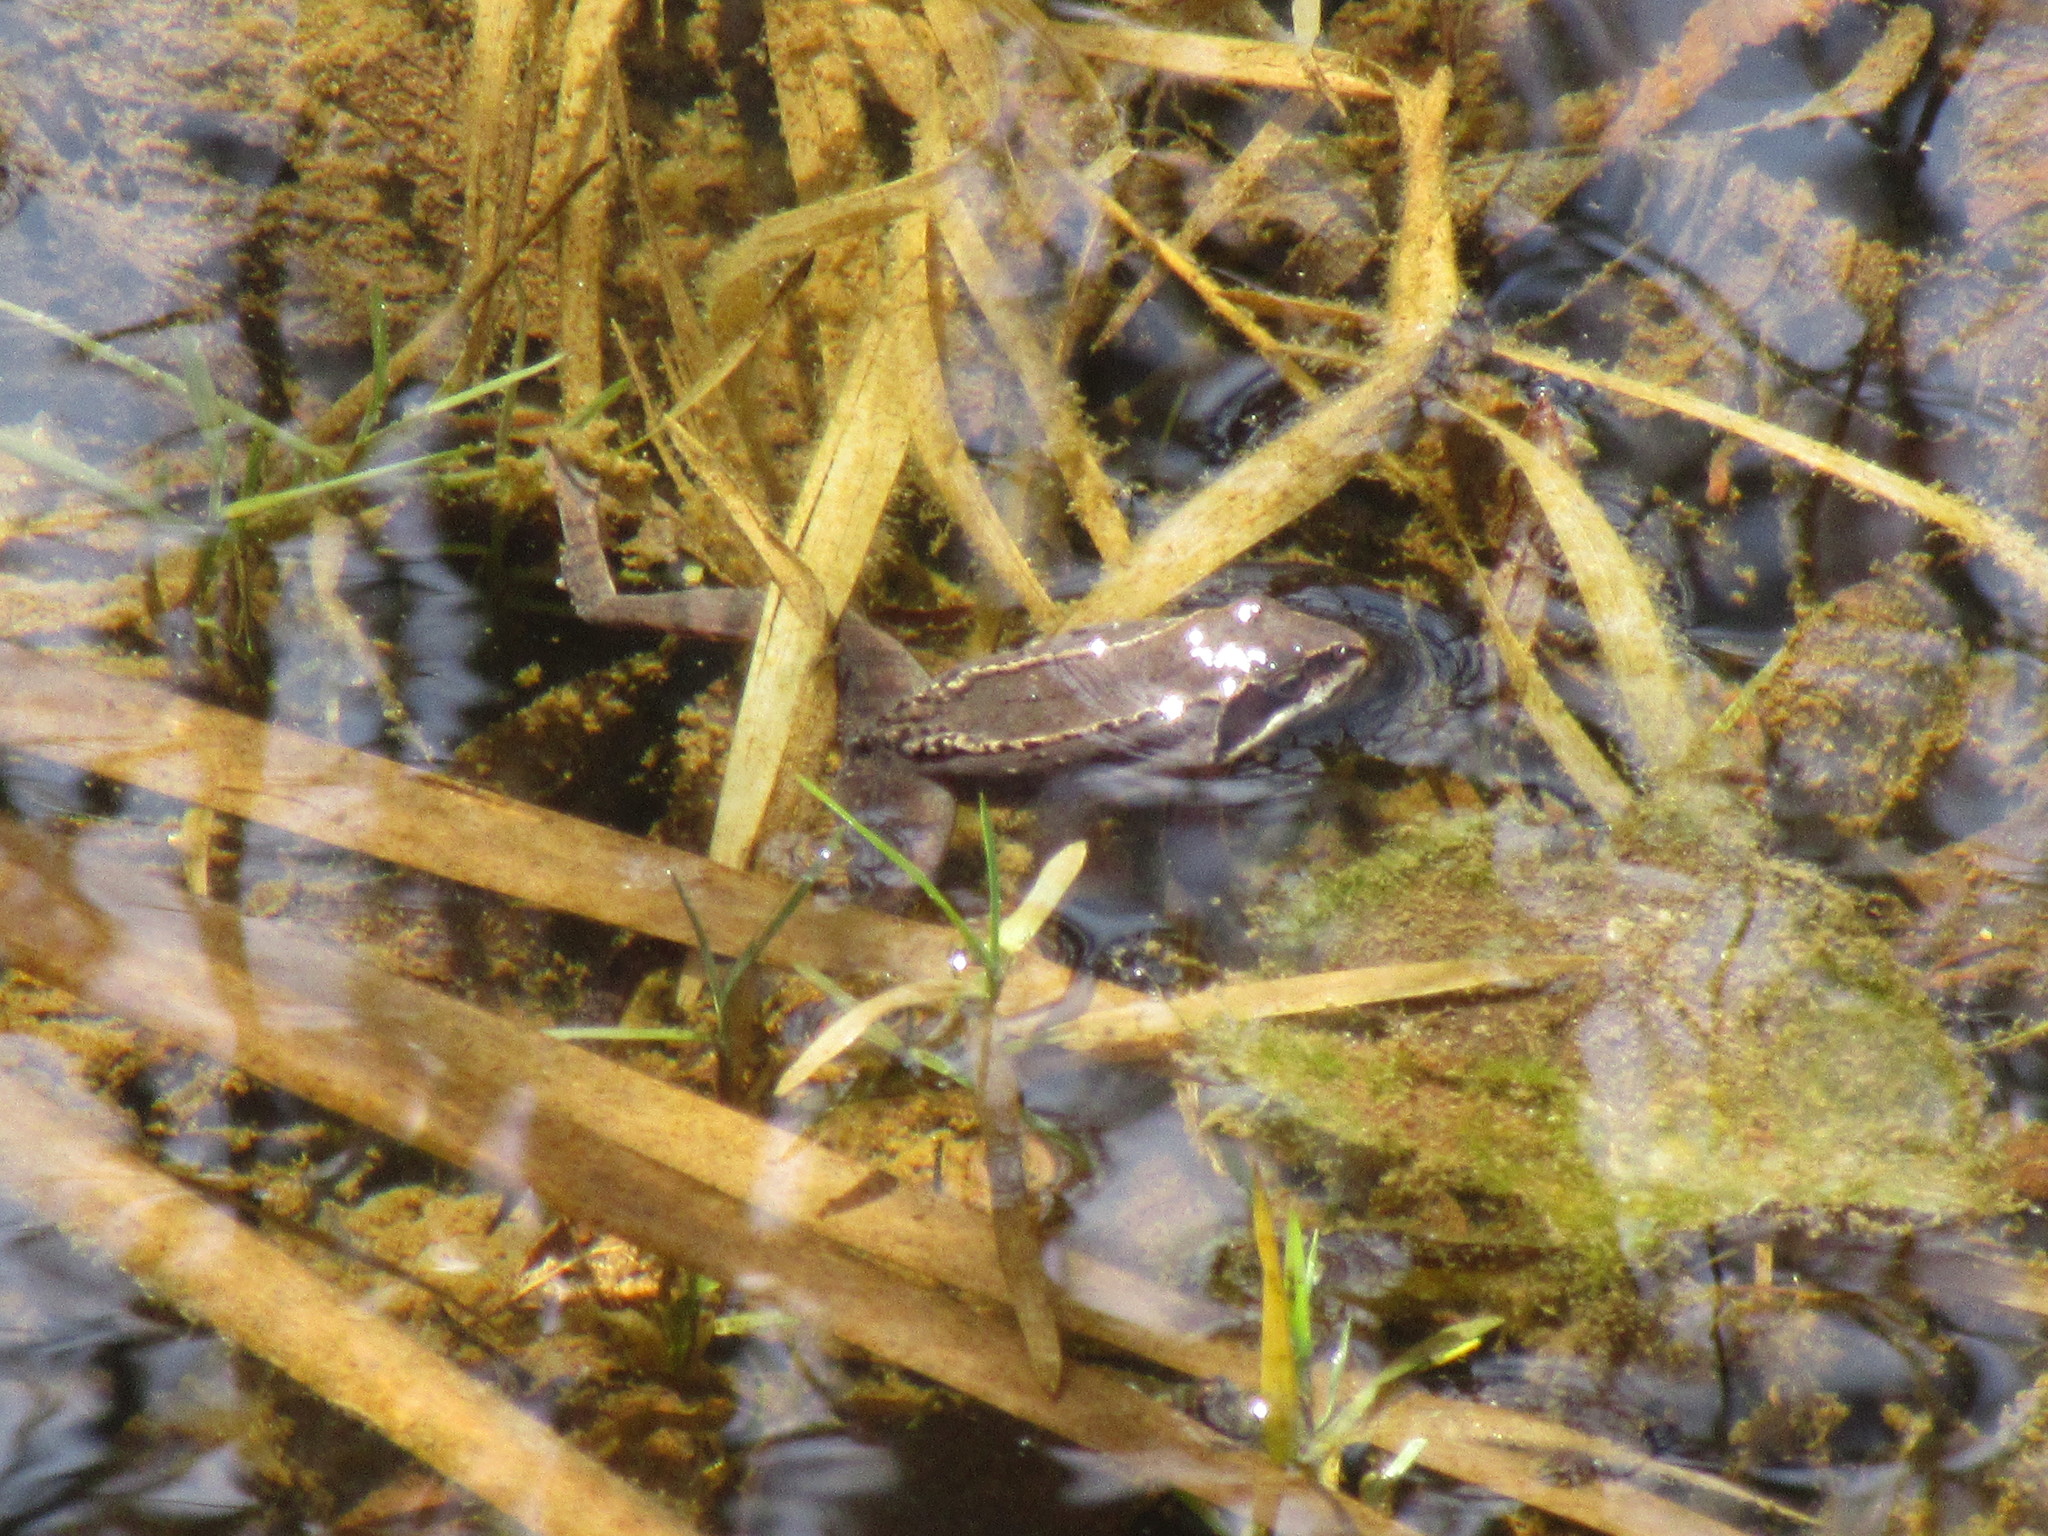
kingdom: Animalia
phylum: Chordata
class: Amphibia
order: Anura
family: Ranidae
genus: Lithobates
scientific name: Lithobates sylvaticus
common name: Wood frog
